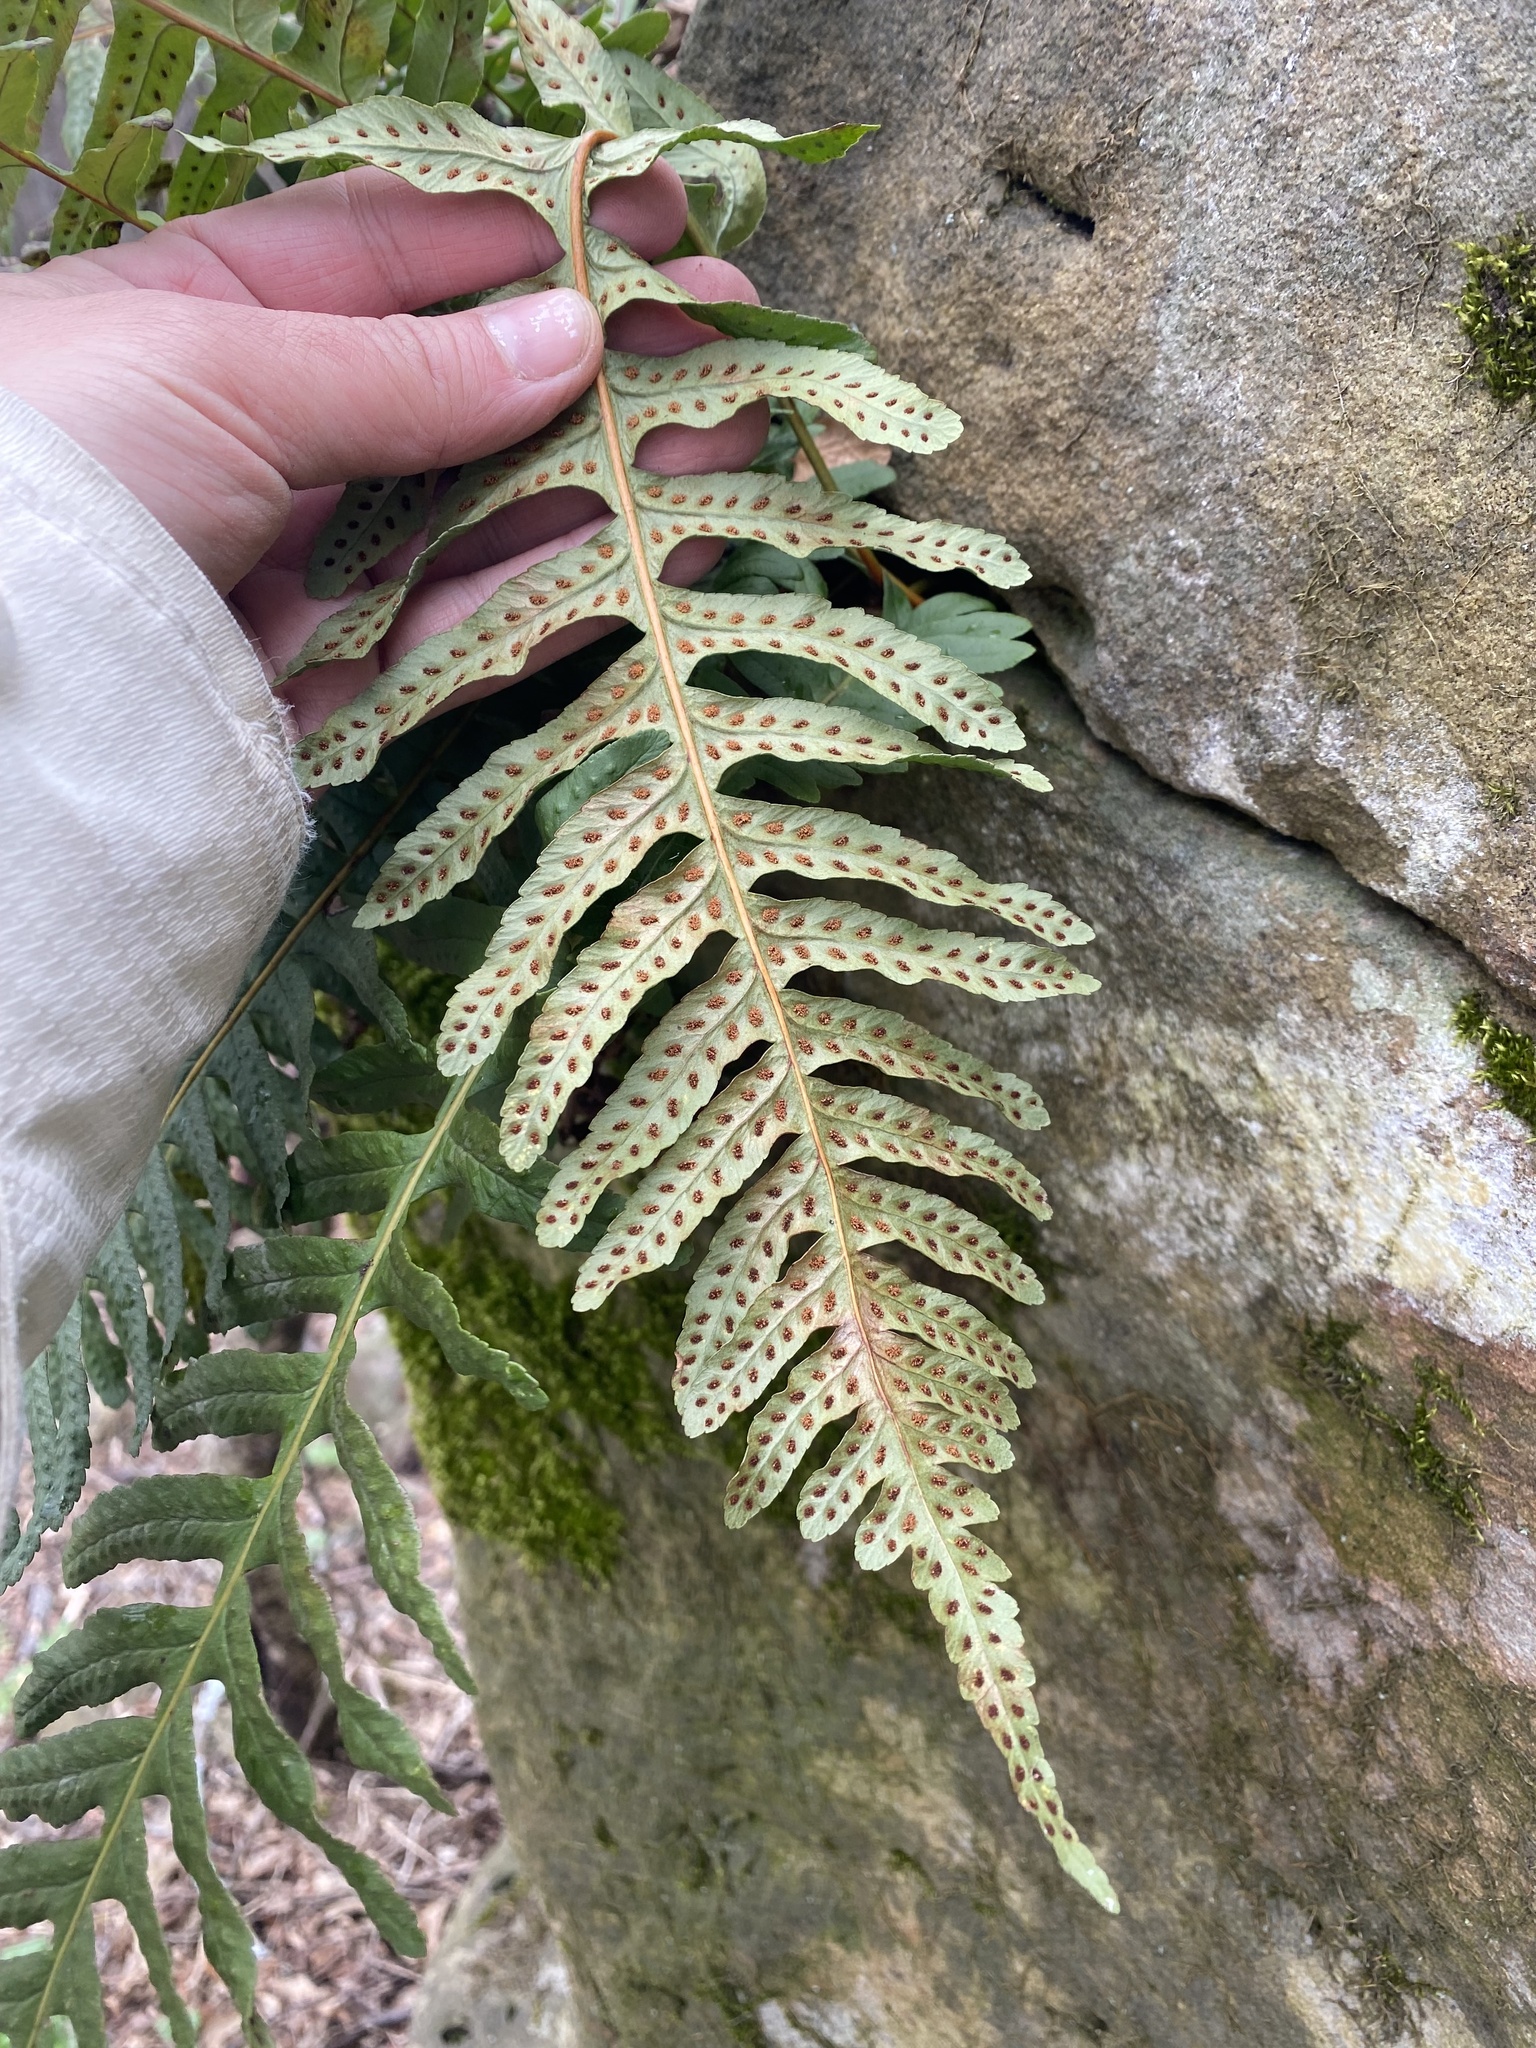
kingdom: Plantae
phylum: Tracheophyta
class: Polypodiopsida
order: Polypodiales
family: Polypodiaceae
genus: Polypodium
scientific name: Polypodium vulgare
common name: Common polypody
